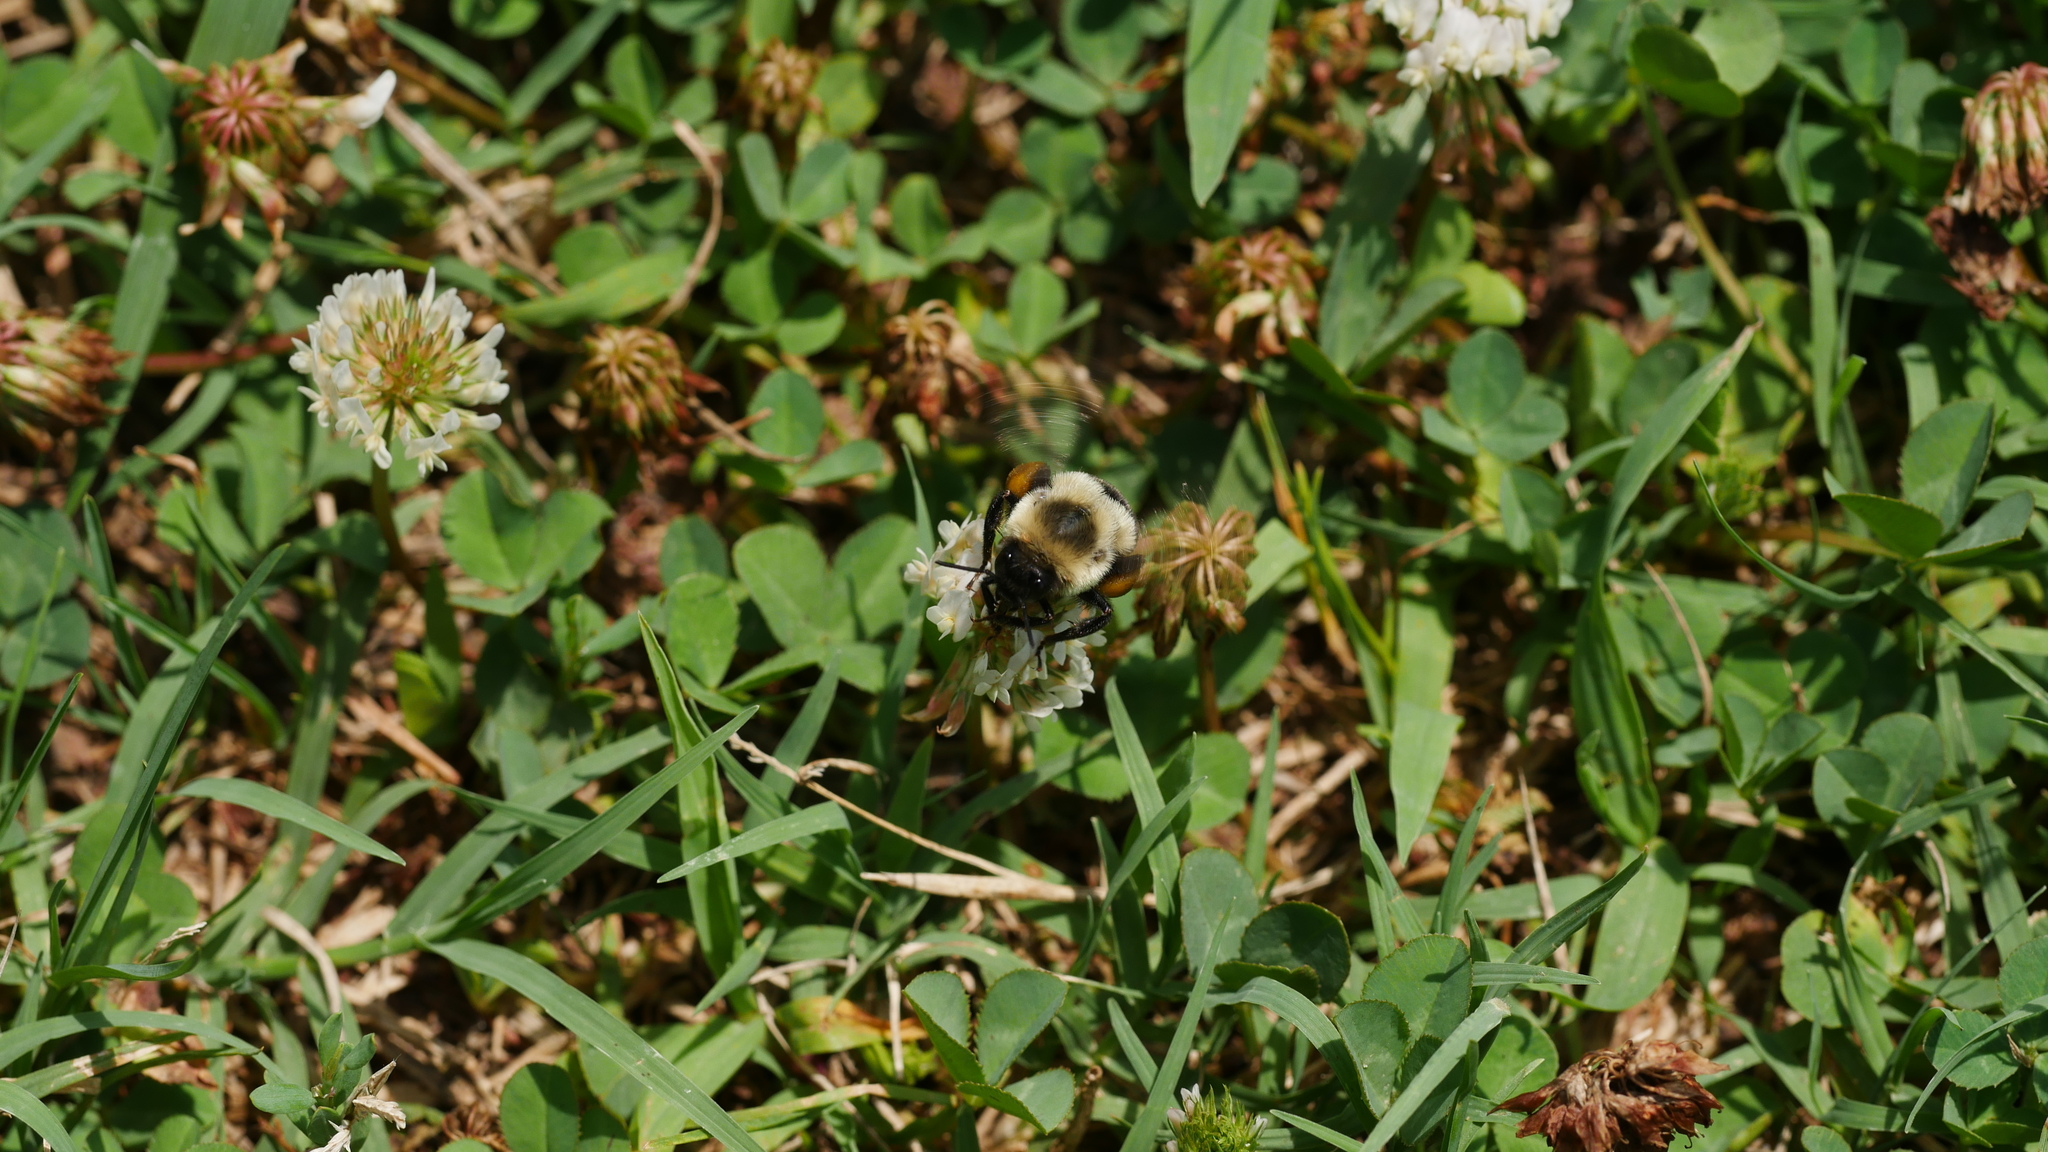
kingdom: Animalia
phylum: Arthropoda
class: Insecta
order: Hymenoptera
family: Apidae
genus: Bombus
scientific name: Bombus impatiens
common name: Common eastern bumble bee
